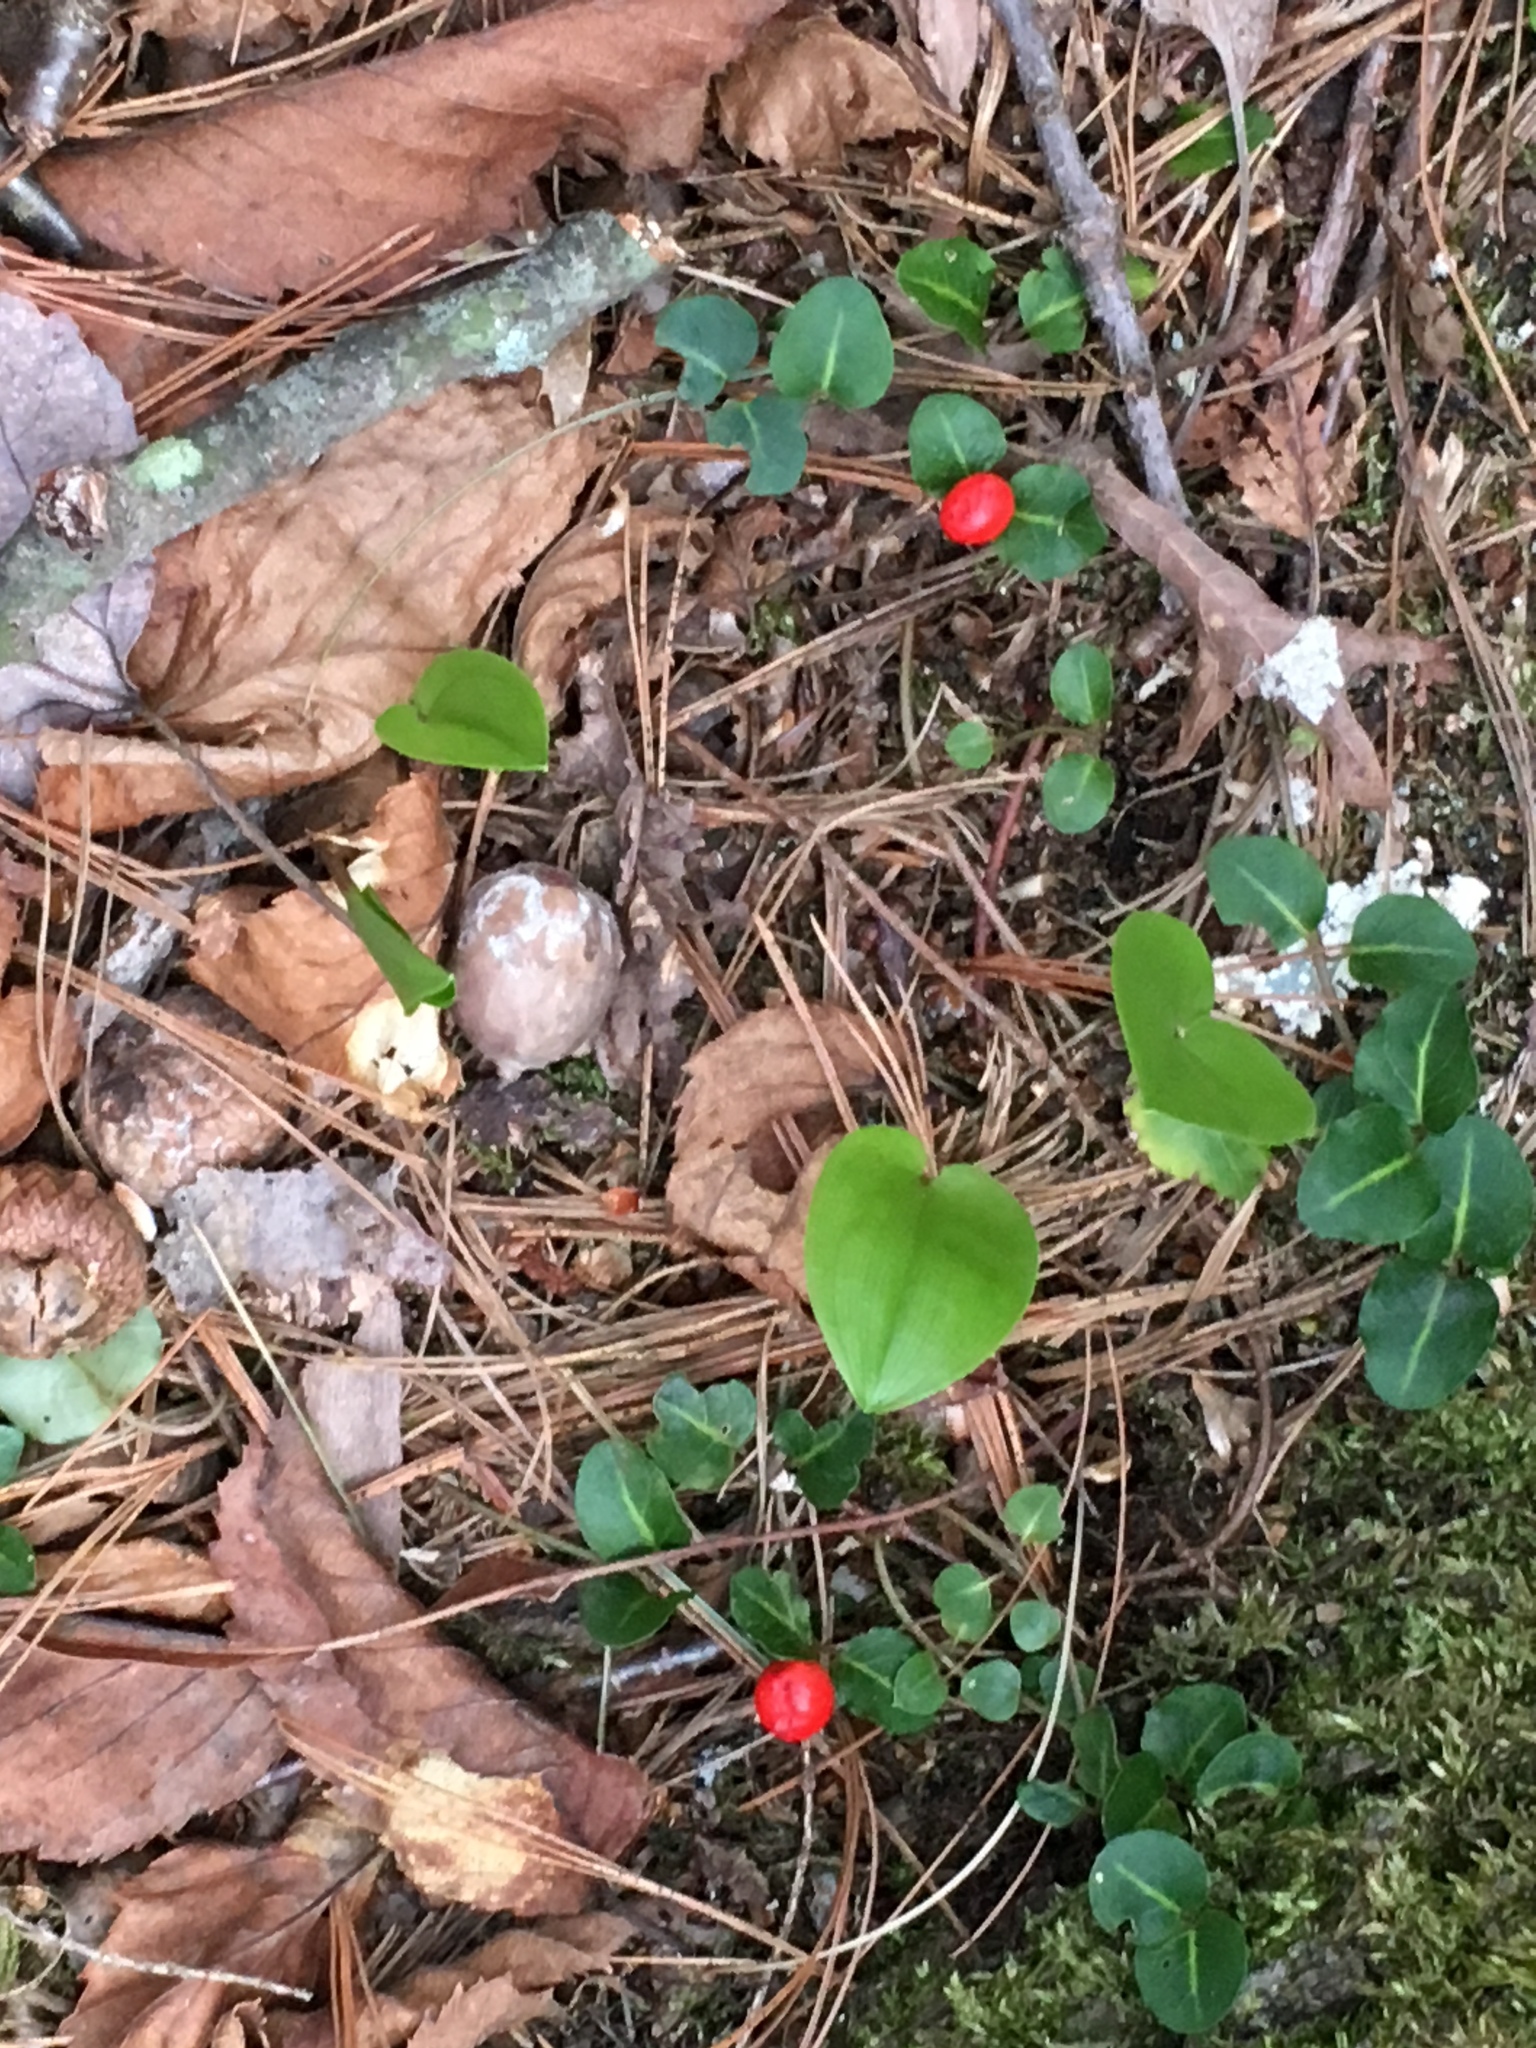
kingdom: Plantae
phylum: Tracheophyta
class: Magnoliopsida
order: Gentianales
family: Rubiaceae
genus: Mitchella
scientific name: Mitchella repens
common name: Partridge-berry
